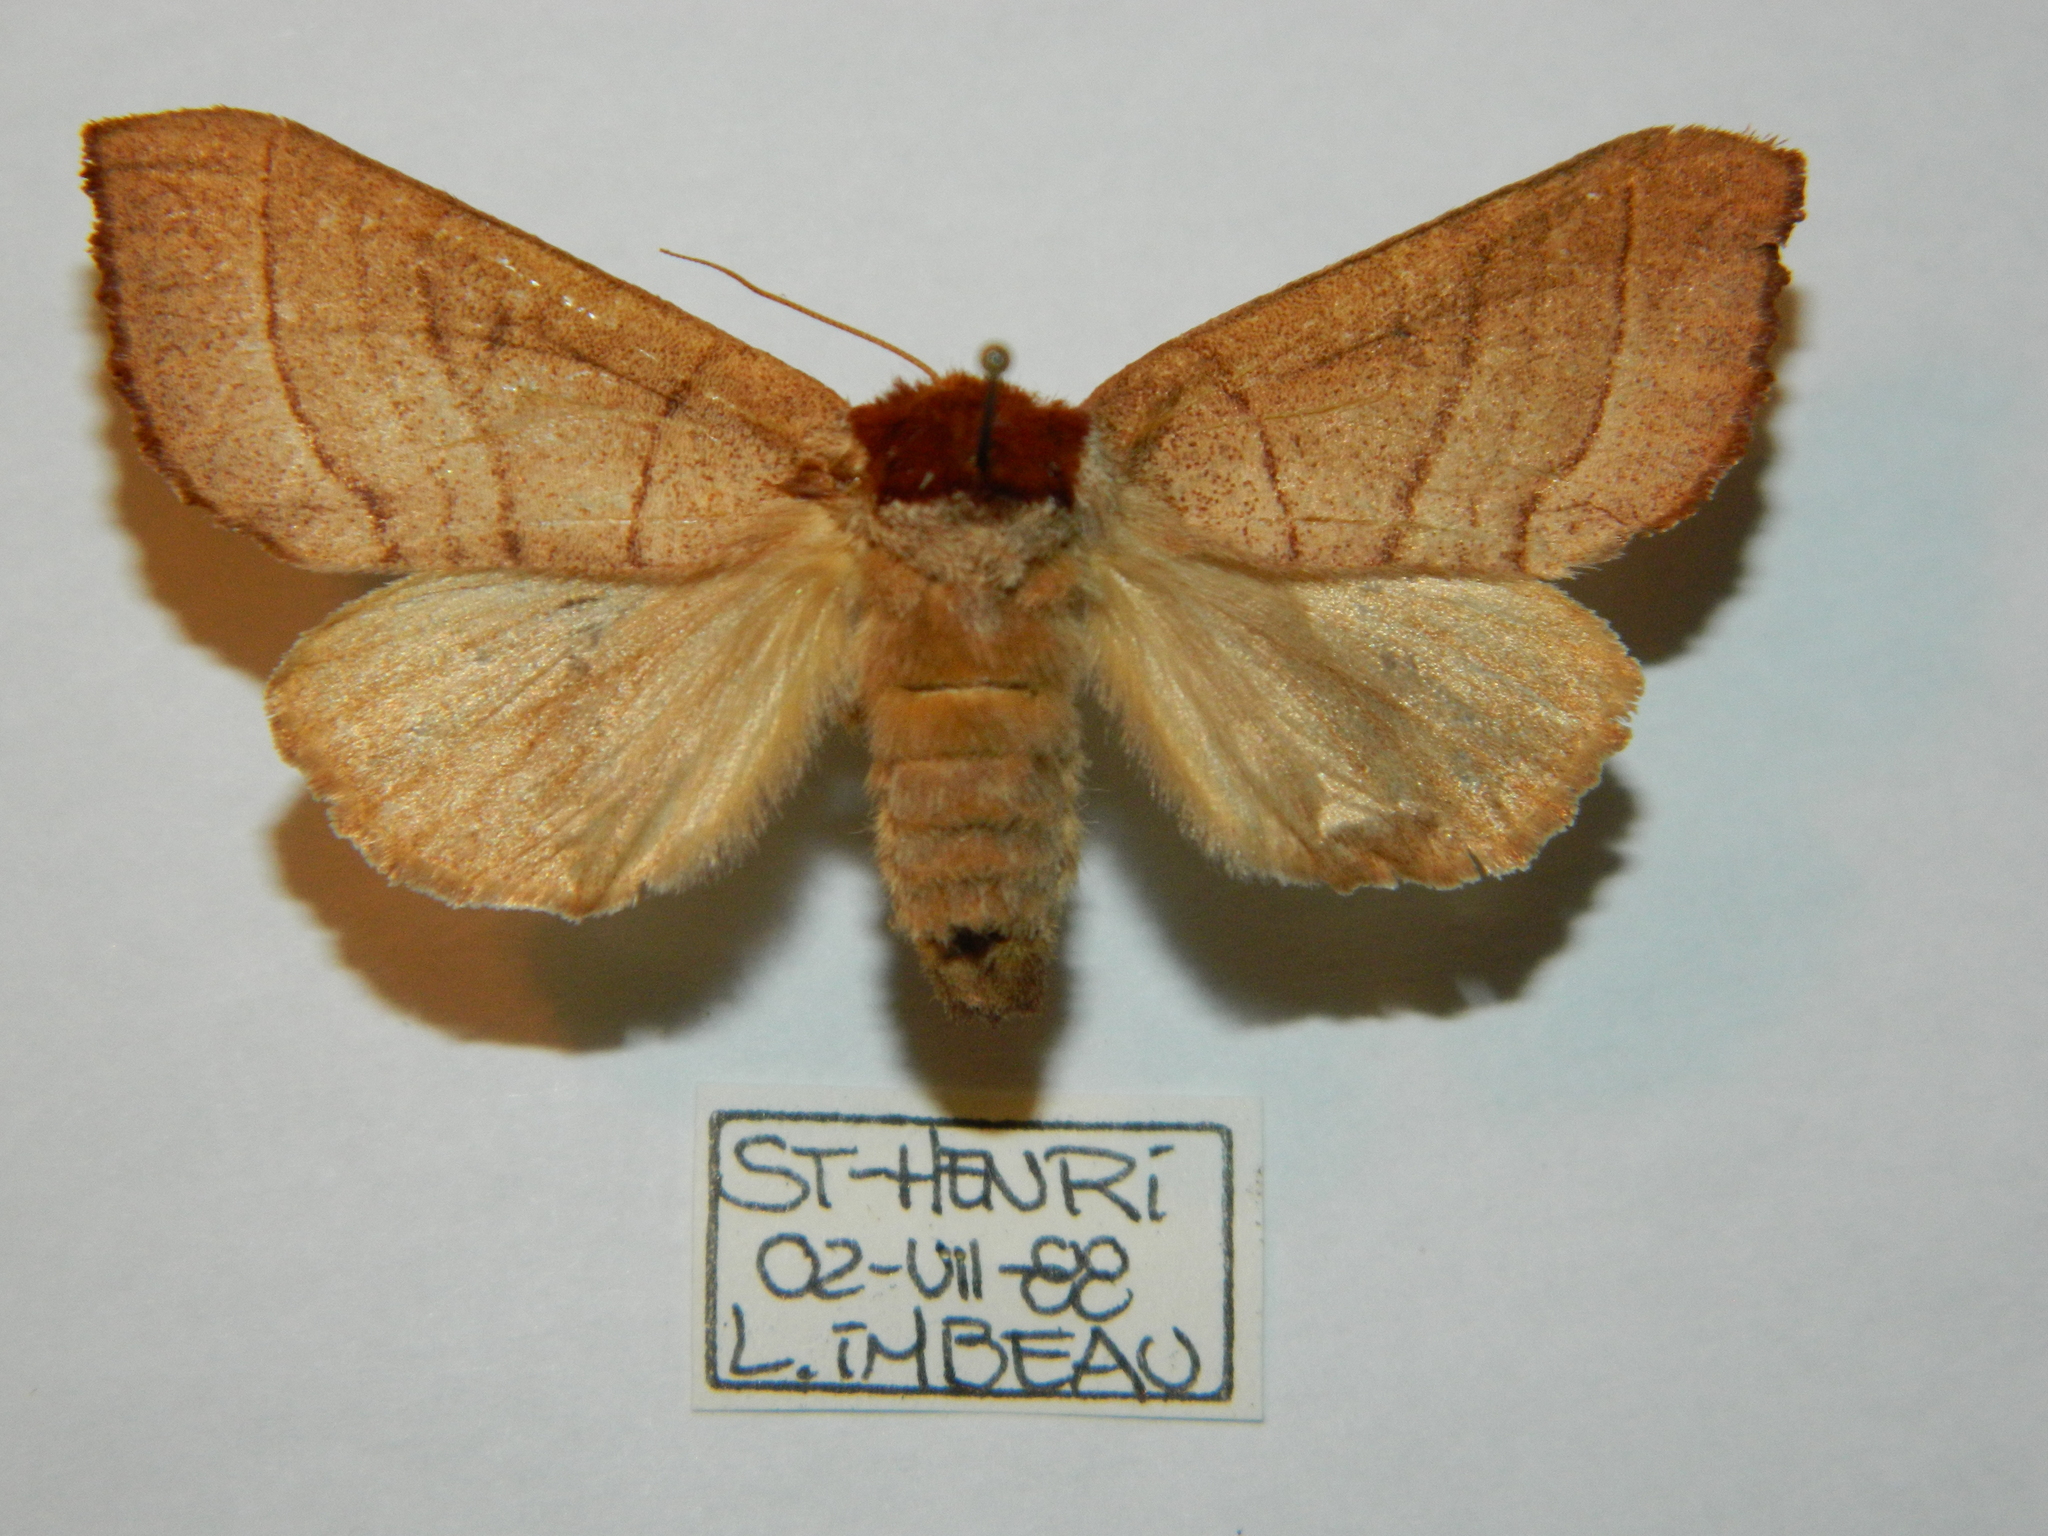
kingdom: Animalia
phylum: Arthropoda
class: Insecta
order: Lepidoptera
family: Notodontidae
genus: Datana
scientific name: Datana ministra
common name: Yellow-necked caterpillar moth
